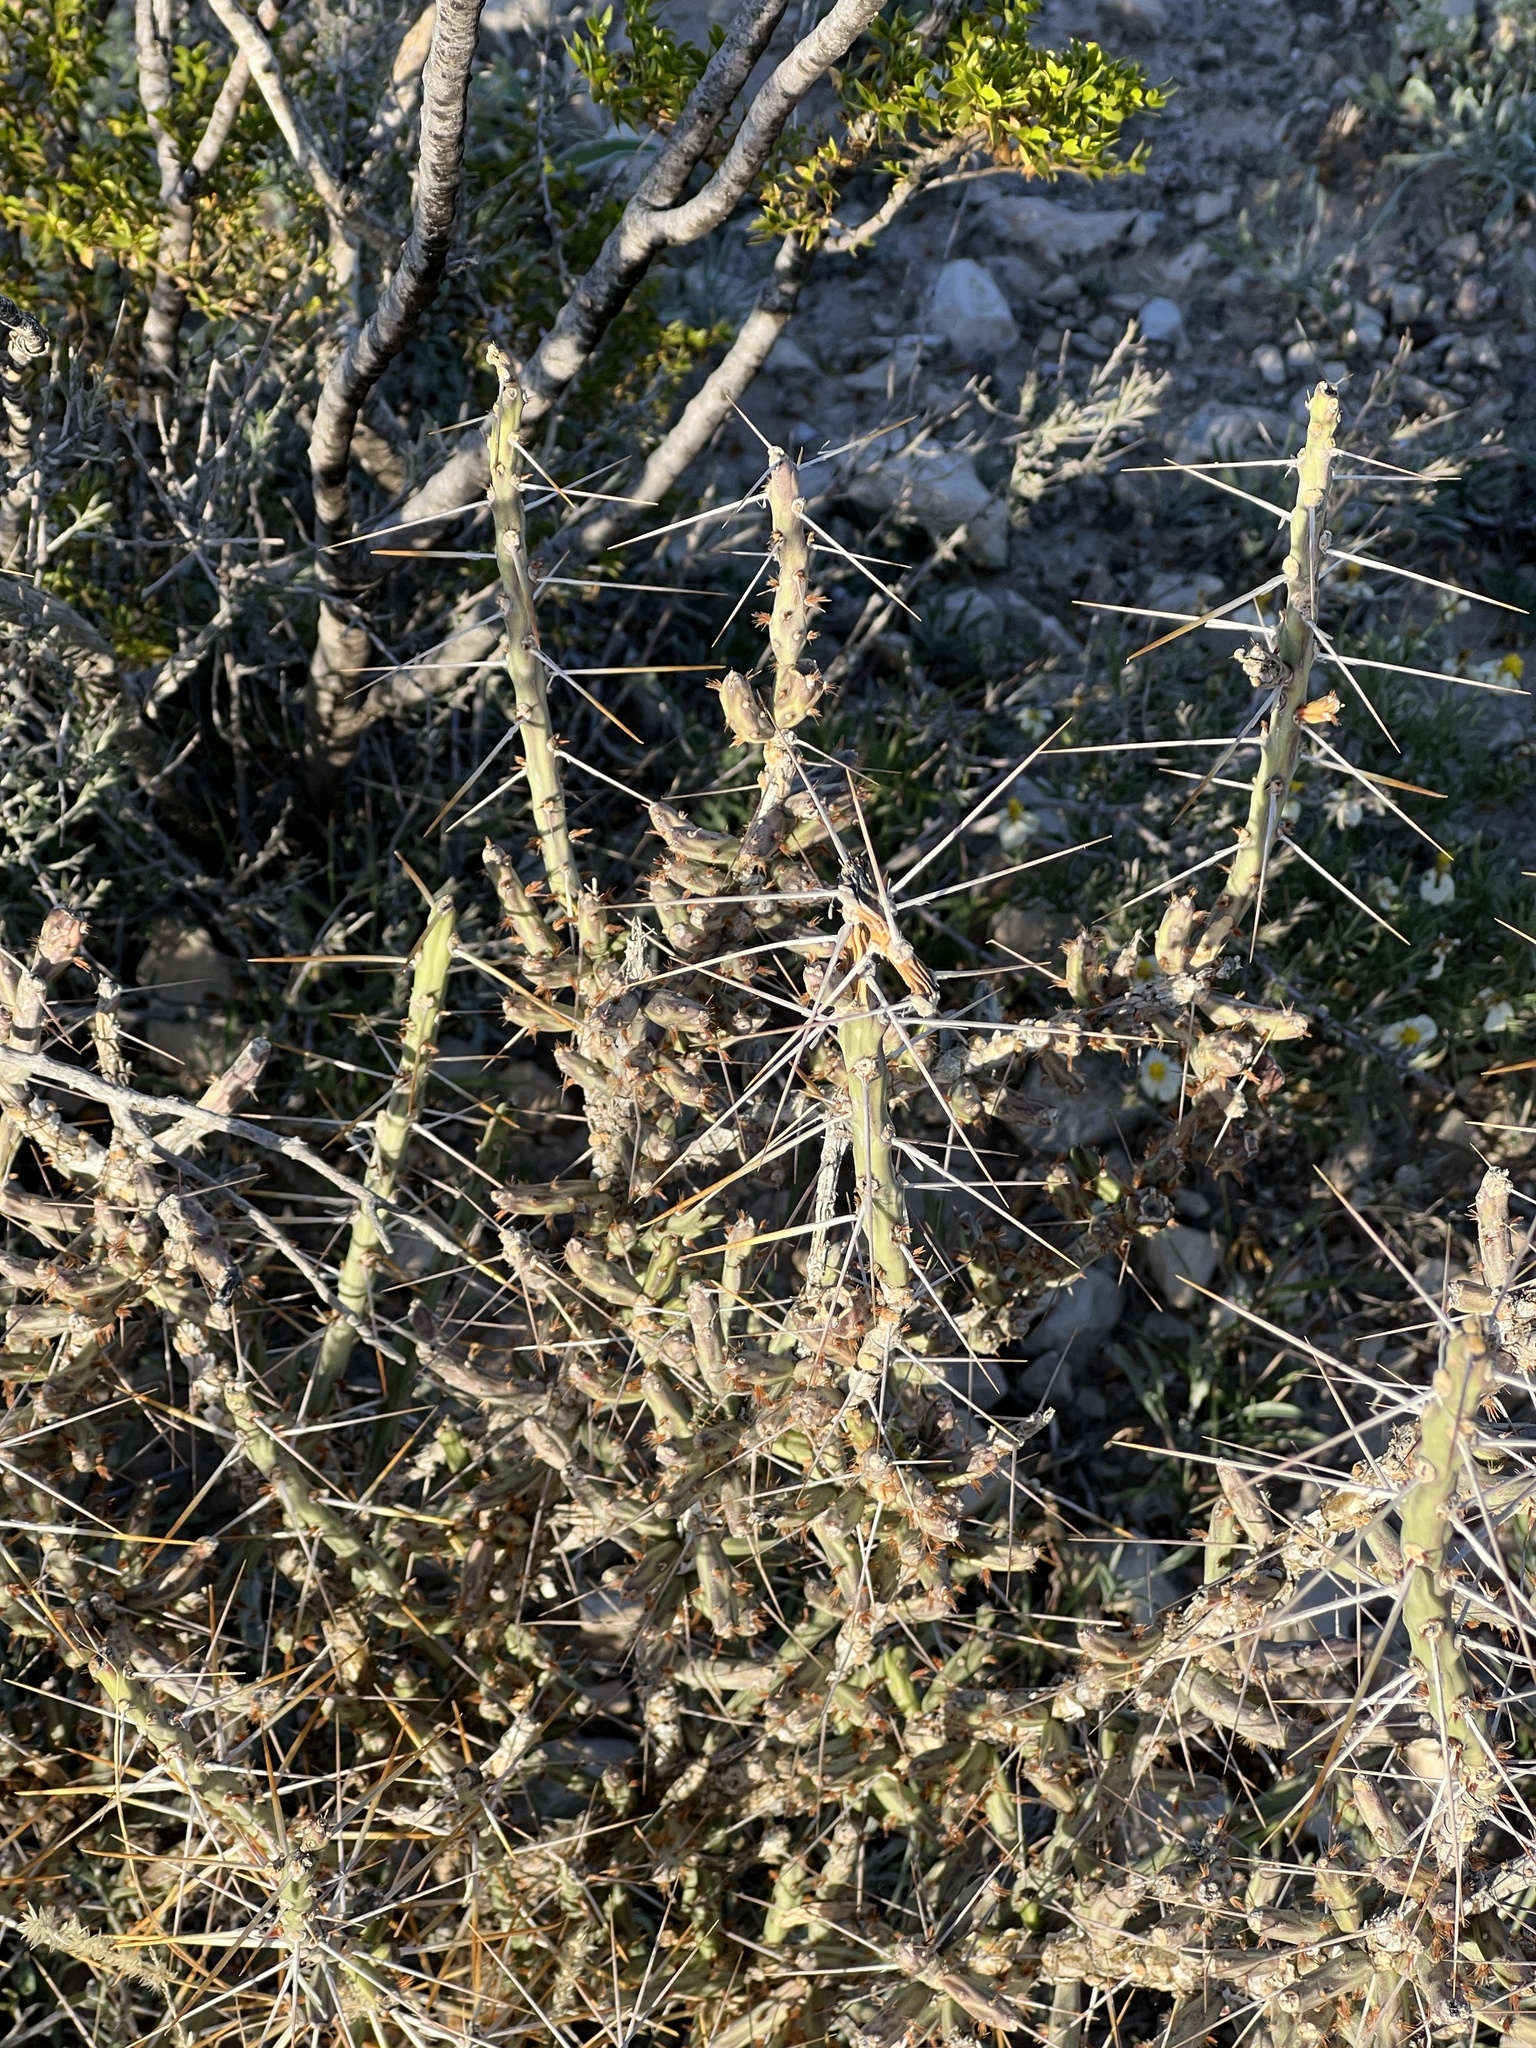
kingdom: Plantae
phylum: Tracheophyta
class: Magnoliopsida
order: Caryophyllales
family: Cactaceae
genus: Cylindropuntia
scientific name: Cylindropuntia leptocaulis
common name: Christmas cactus
